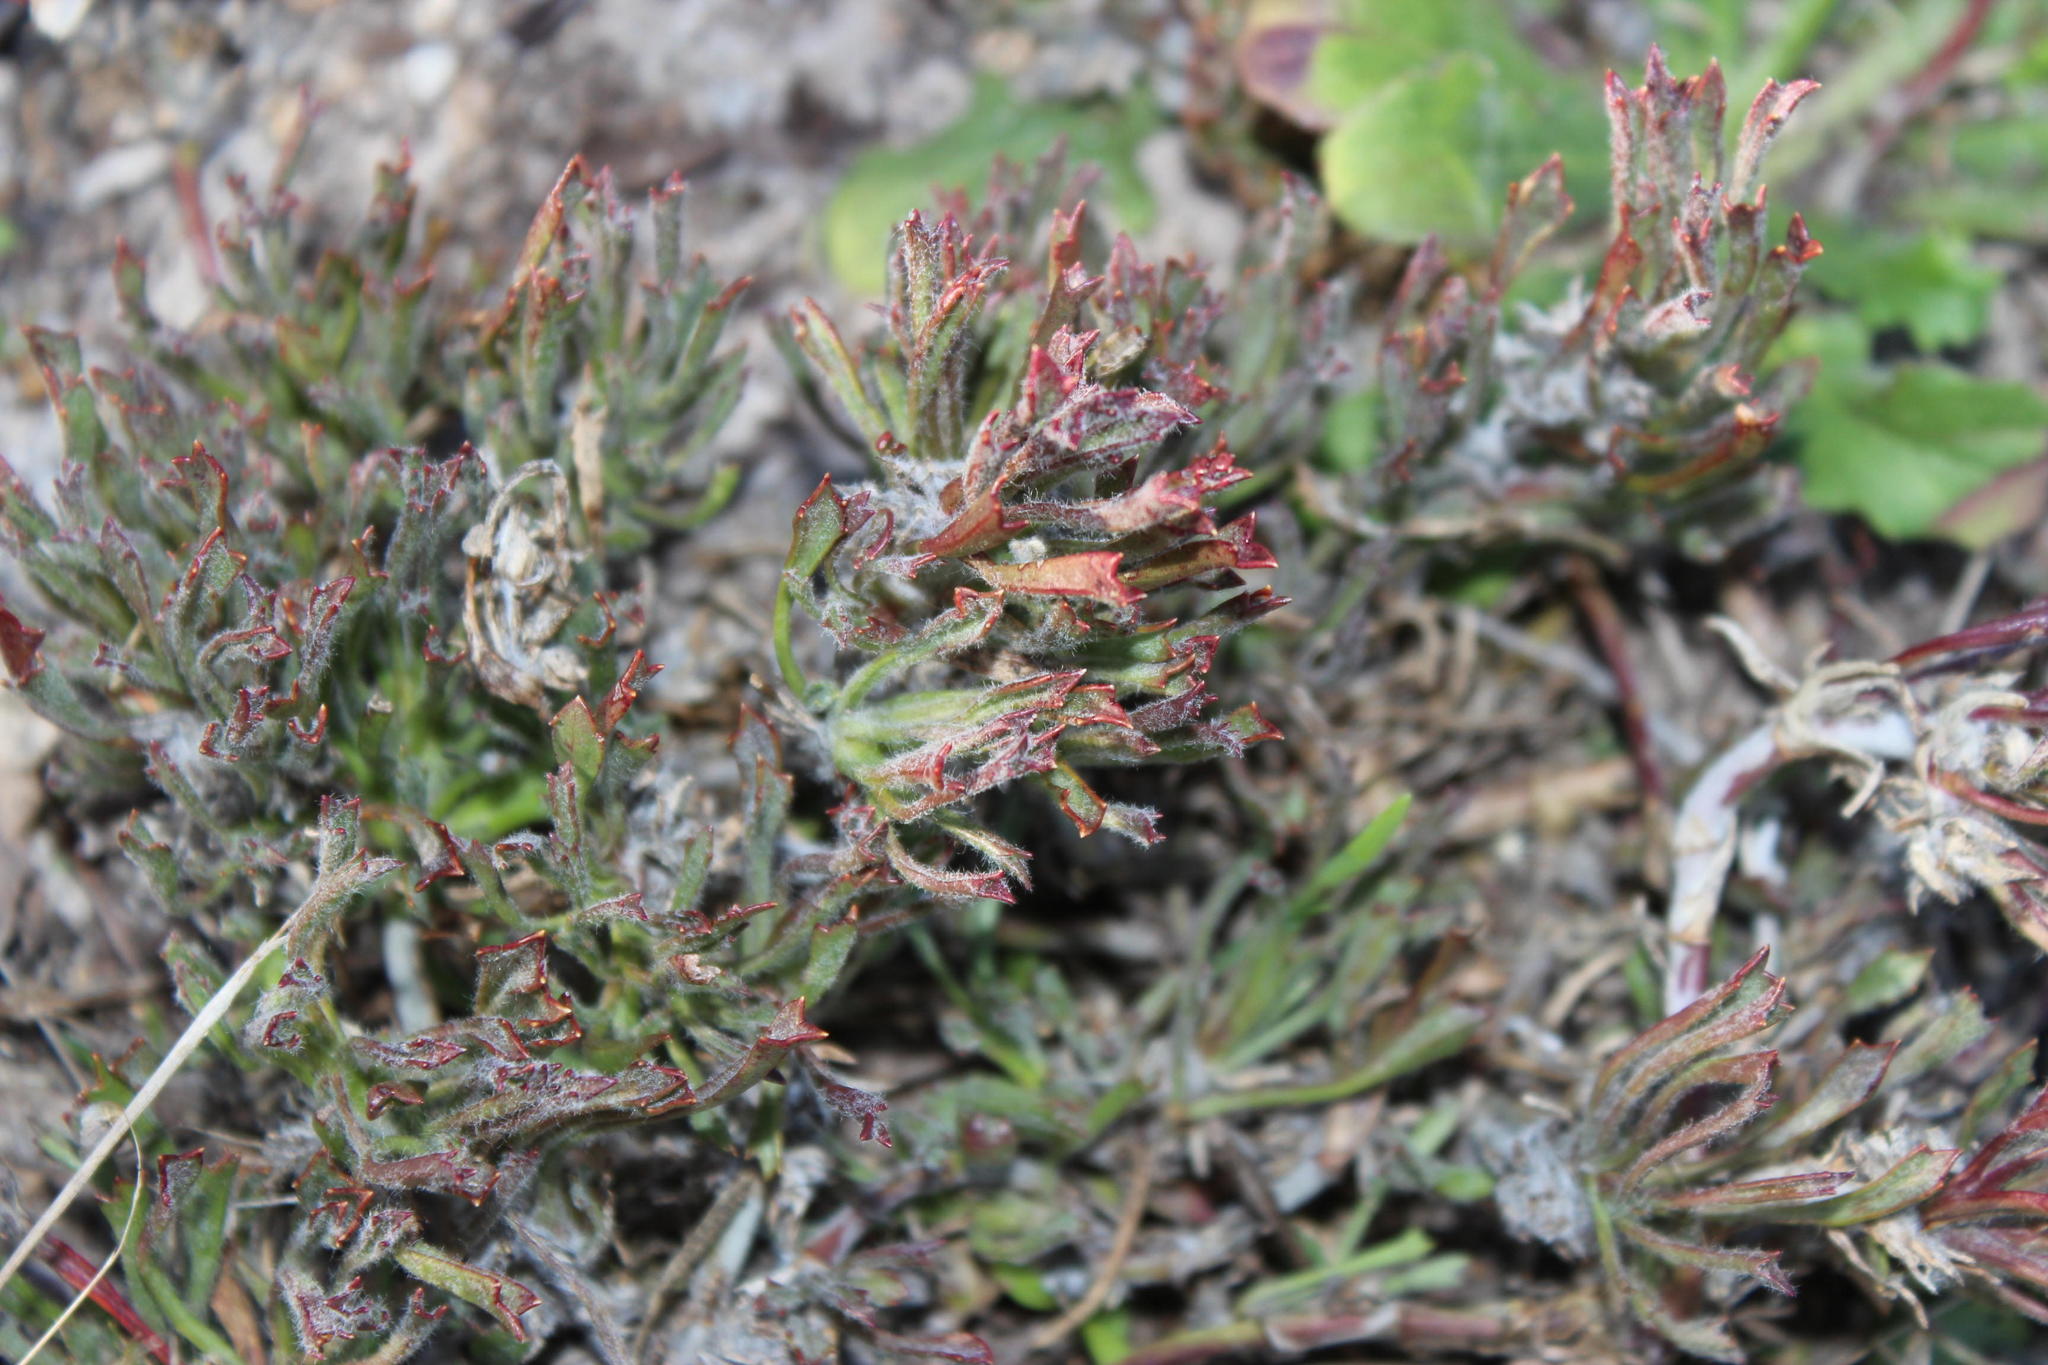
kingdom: Plantae
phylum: Tracheophyta
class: Magnoliopsida
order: Apiales
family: Apiaceae
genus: Centella
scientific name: Centella tridentata
